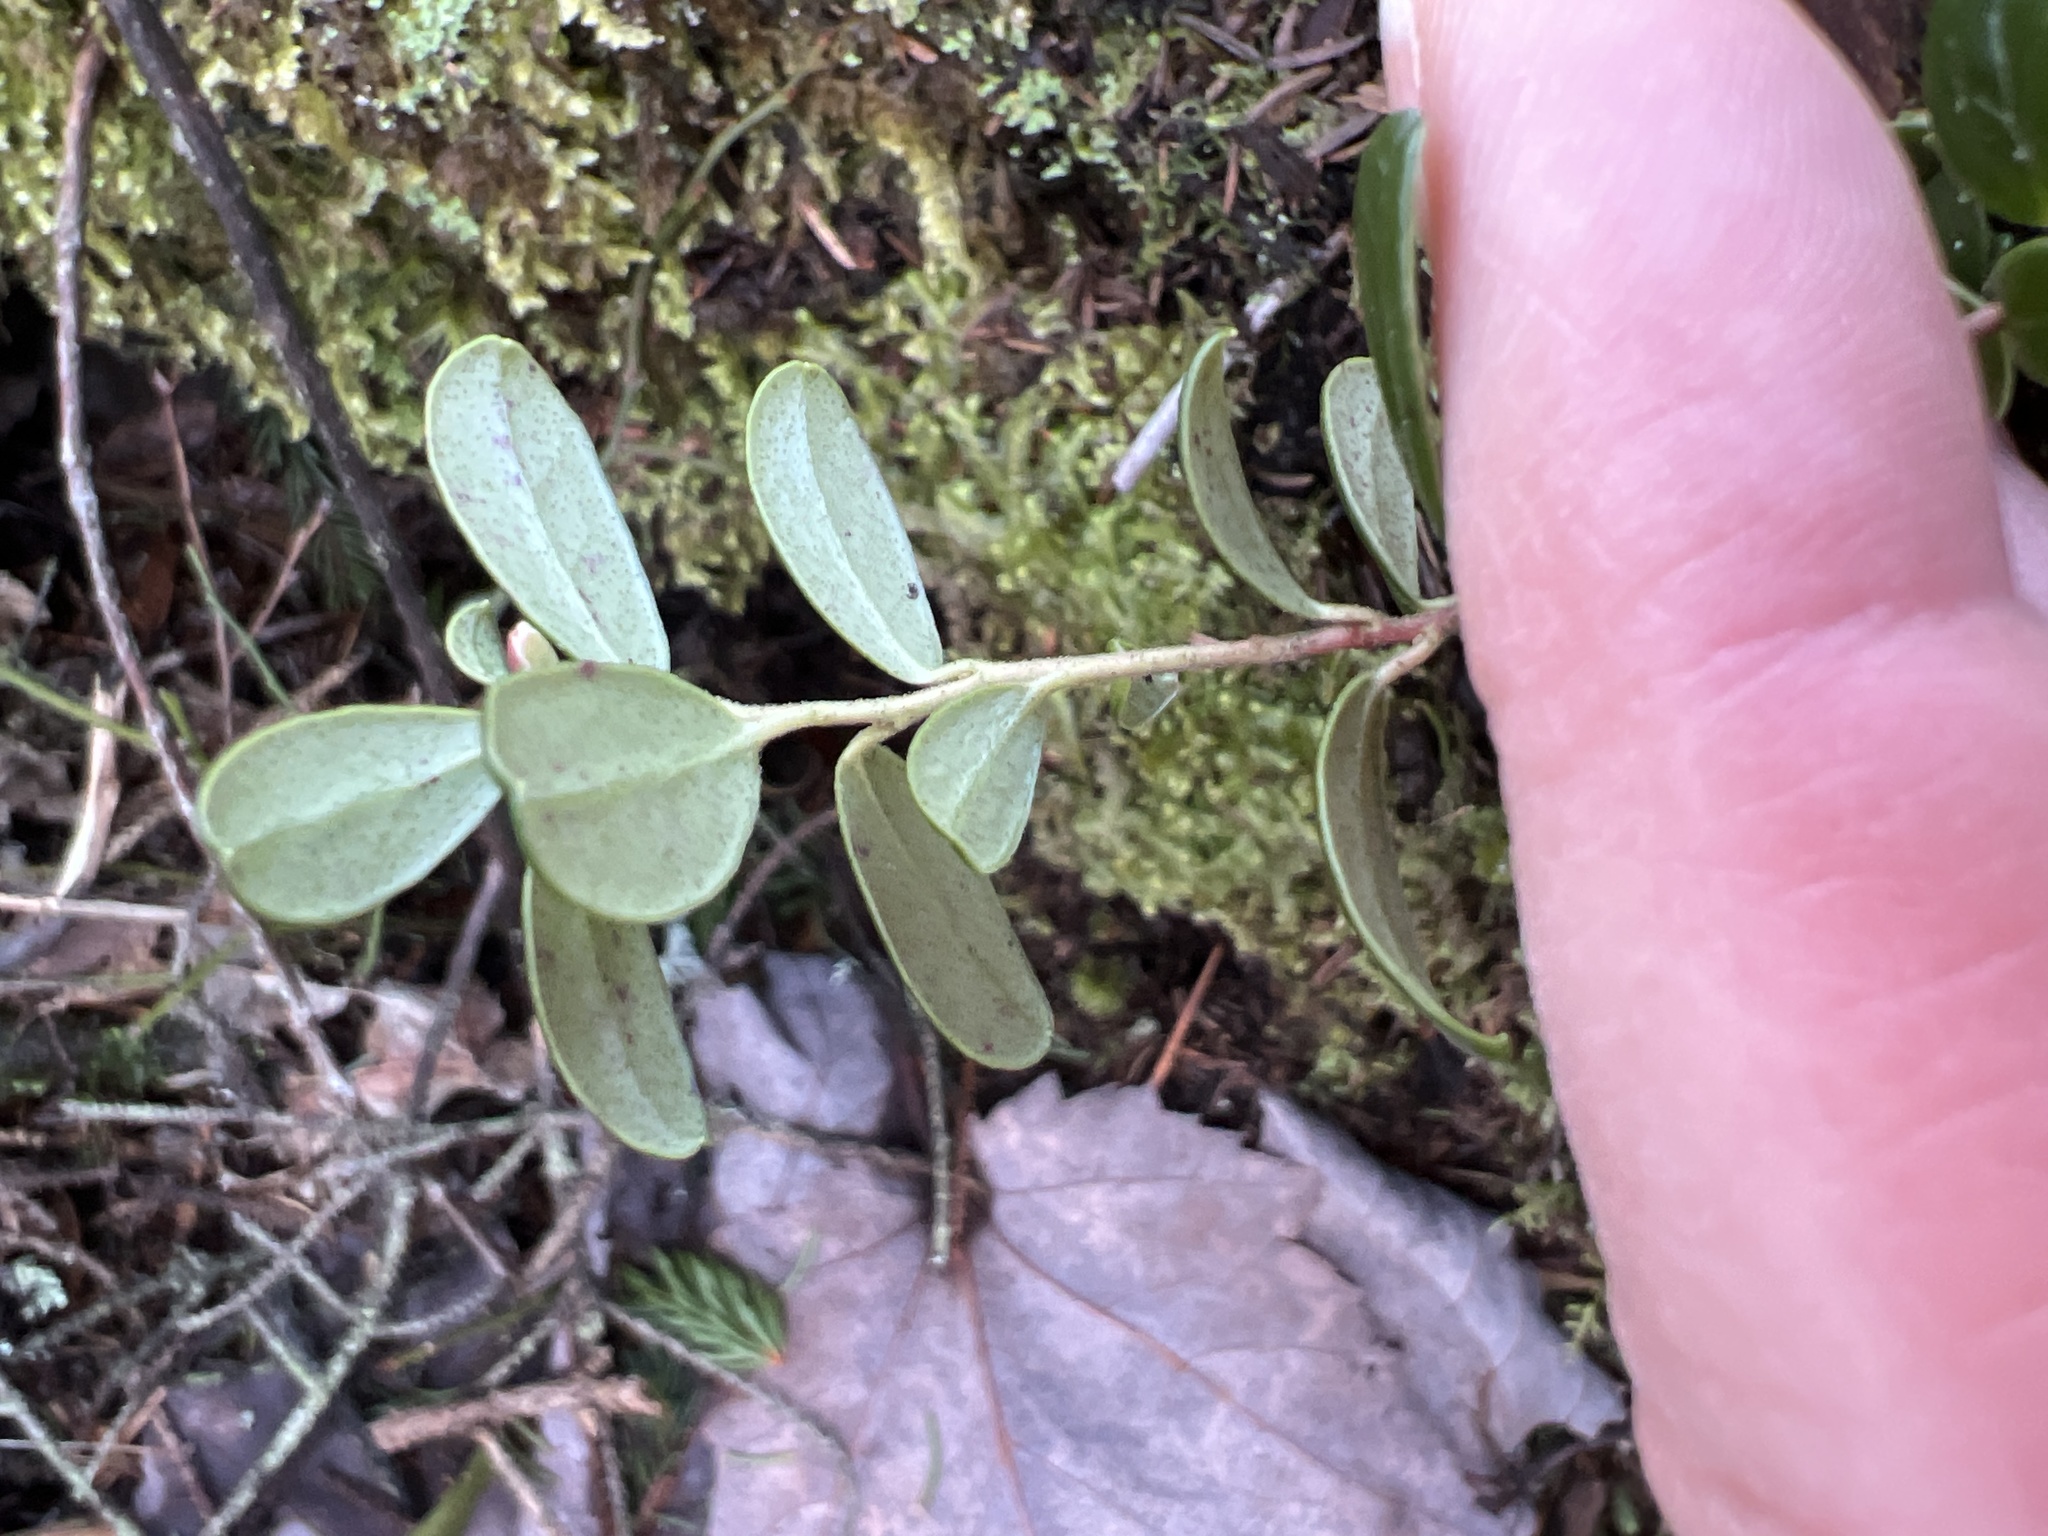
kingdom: Plantae
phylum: Tracheophyta
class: Magnoliopsida
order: Ericales
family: Ericaceae
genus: Vaccinium
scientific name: Vaccinium vitis-idaea
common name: Cowberry
